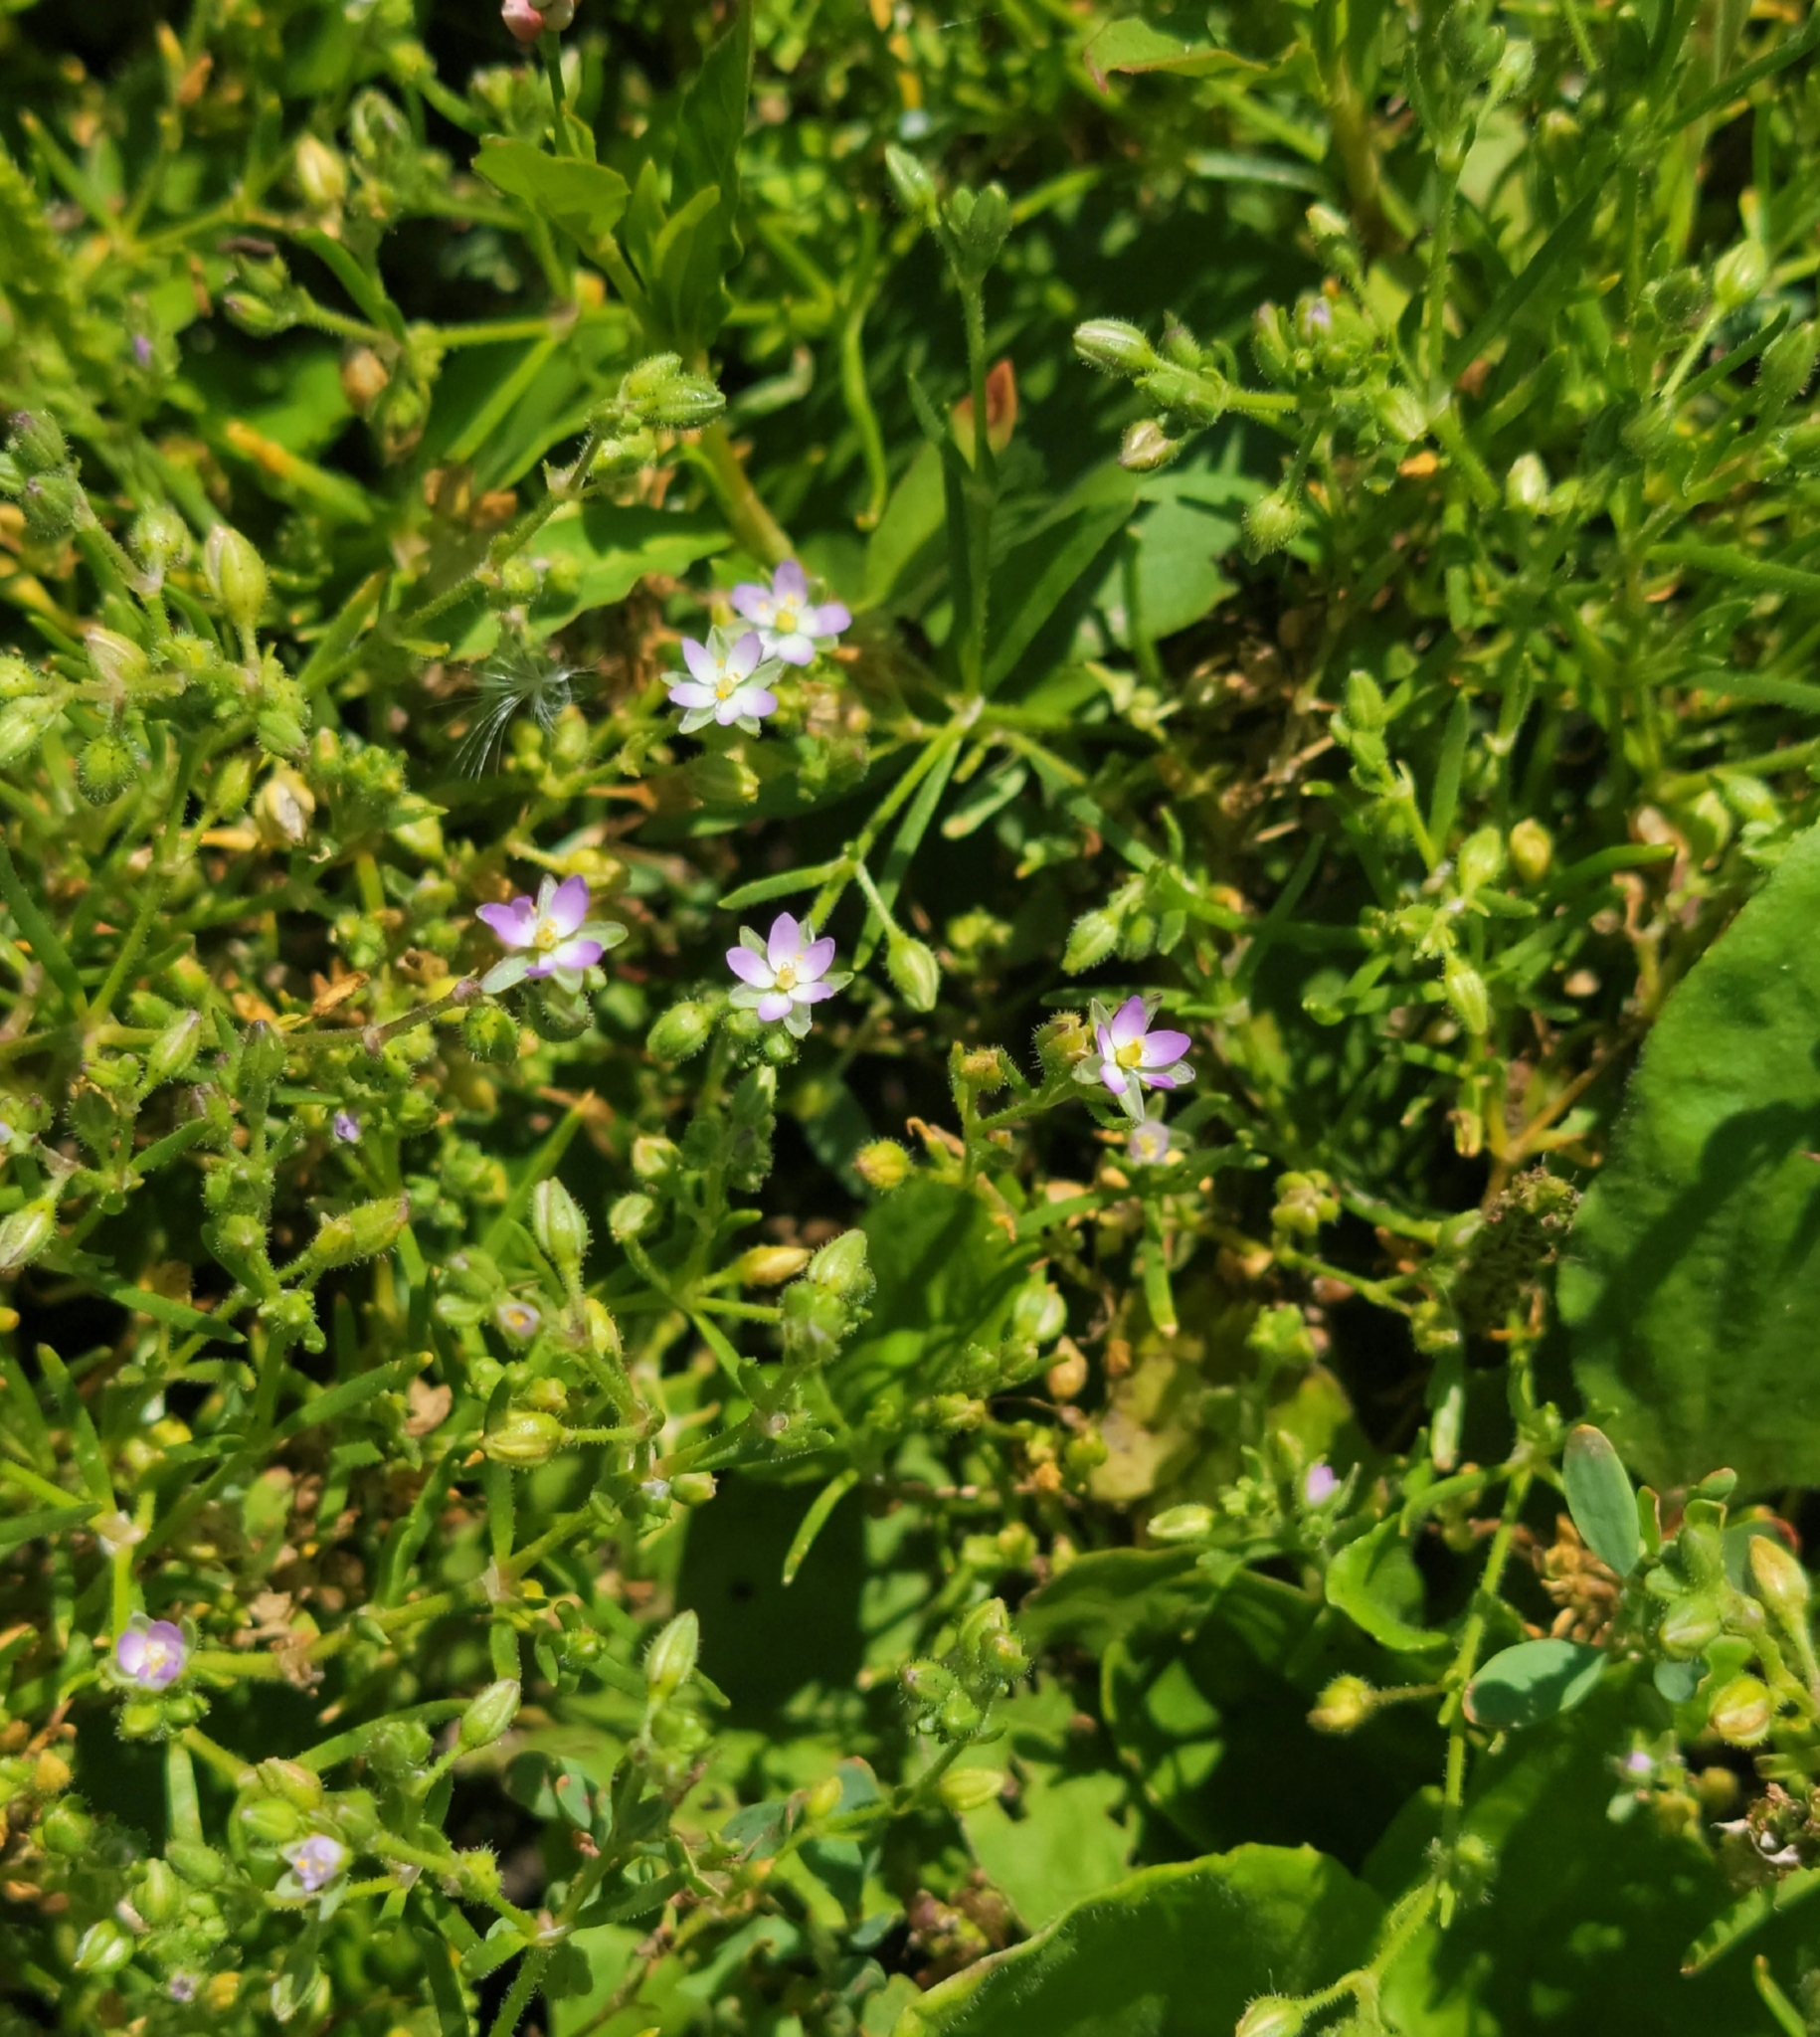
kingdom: Plantae
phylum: Tracheophyta
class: Magnoliopsida
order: Caryophyllales
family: Caryophyllaceae
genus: Spergularia
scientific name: Spergularia marina
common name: Lesser sea-spurrey
